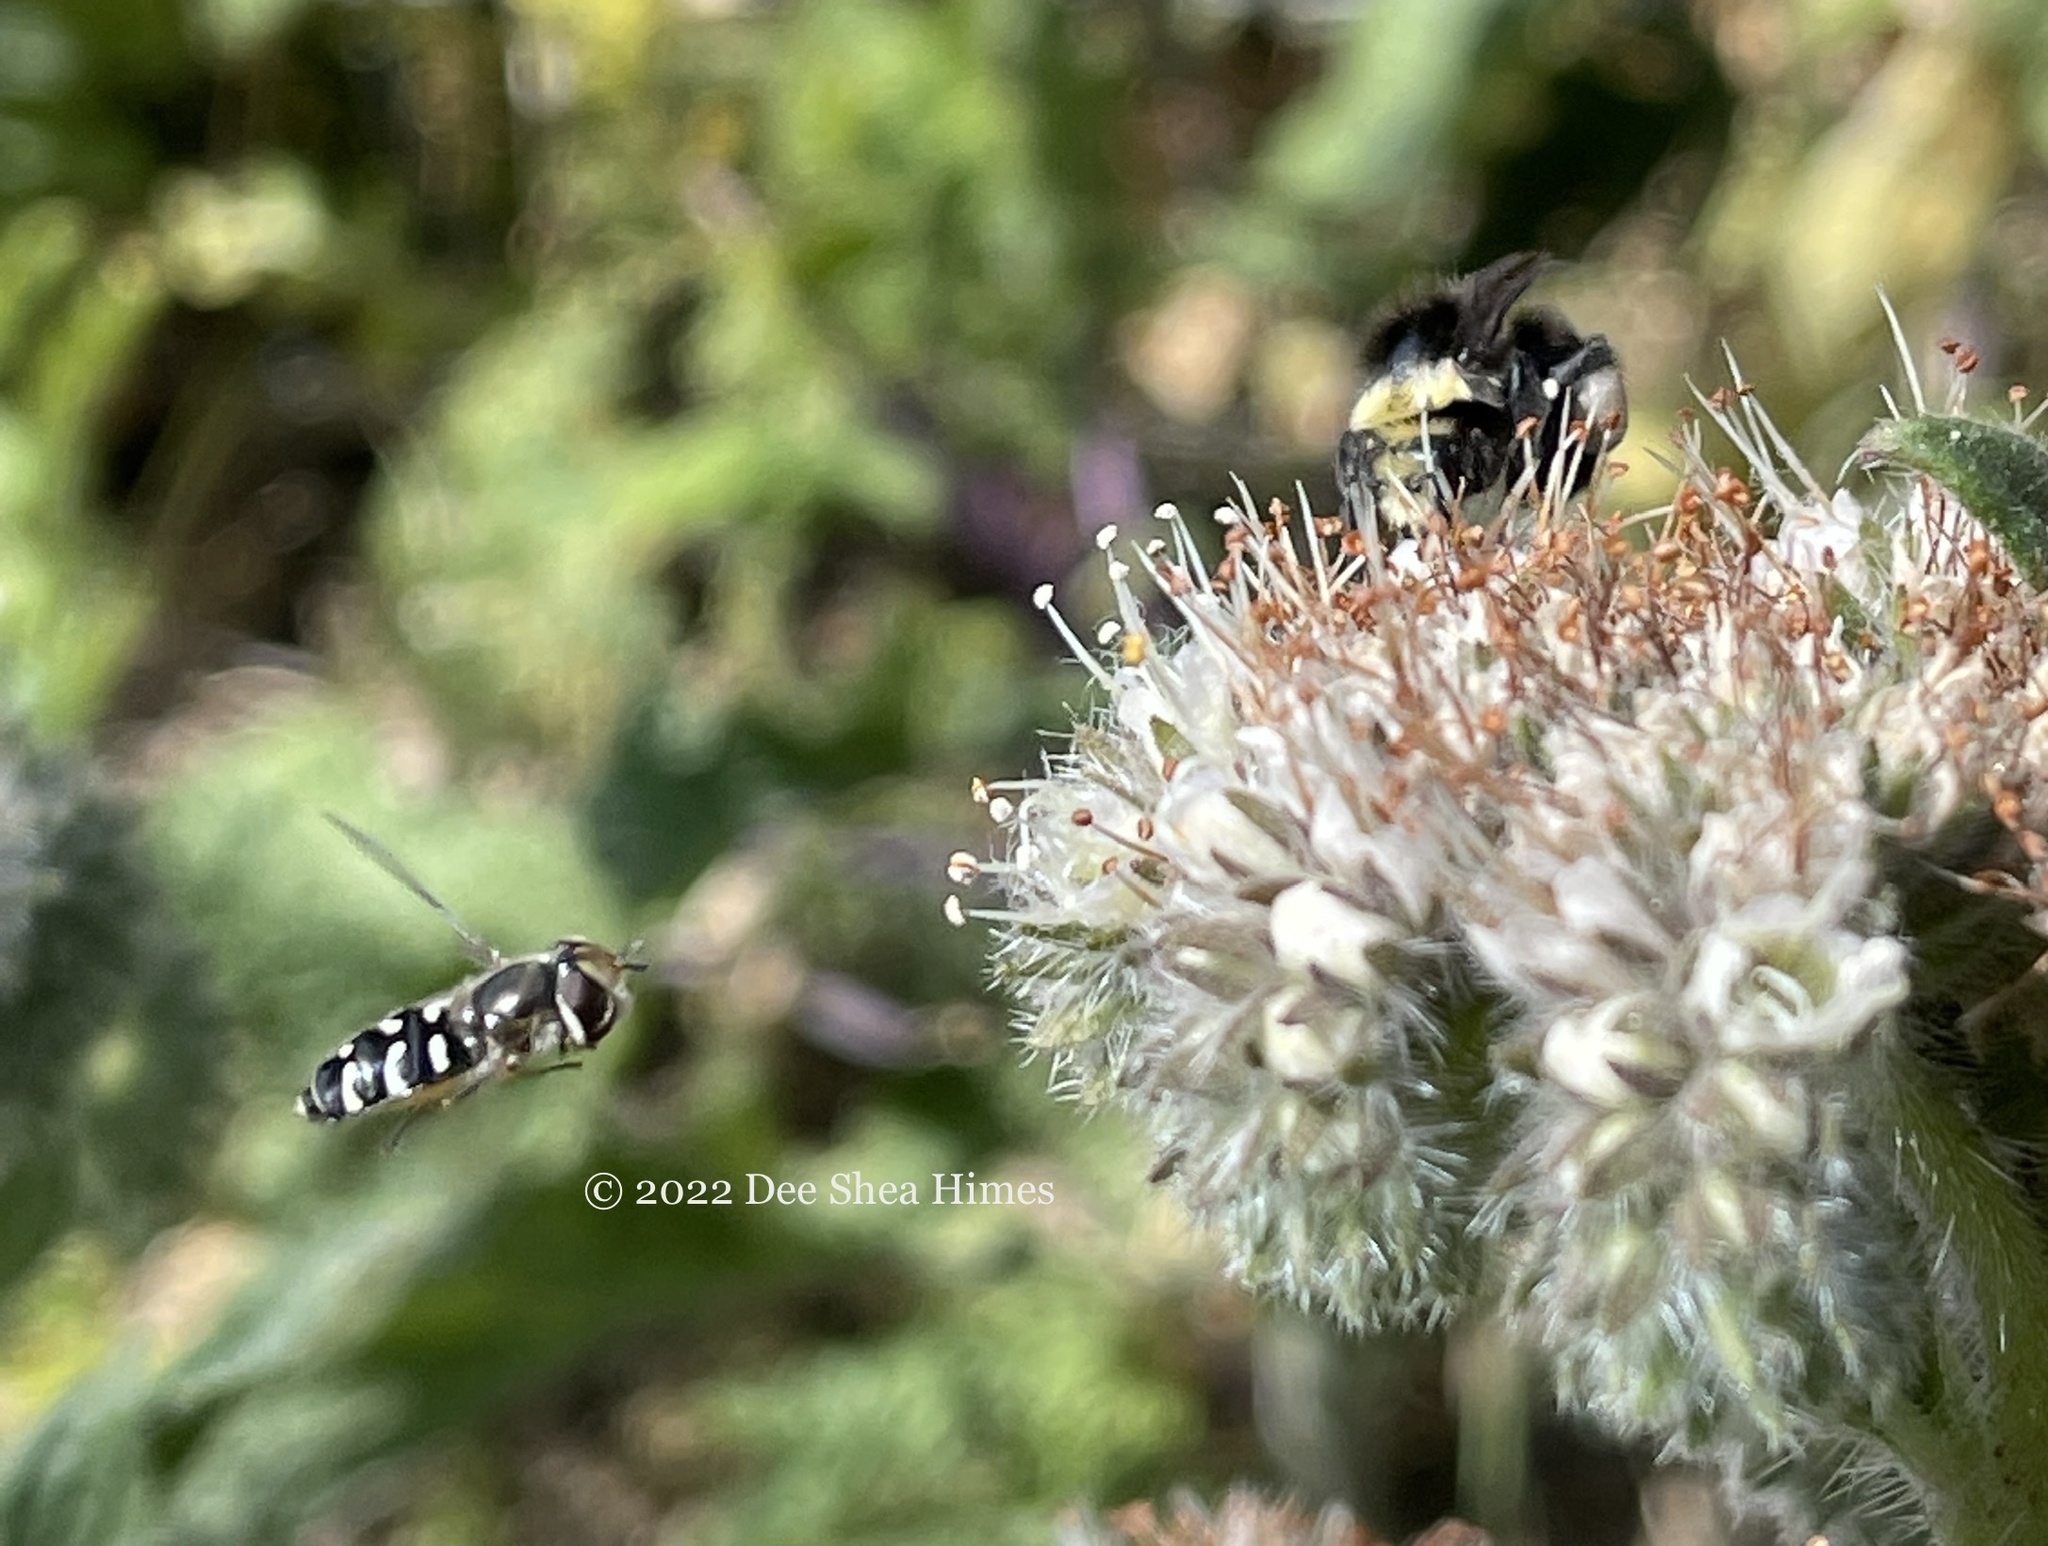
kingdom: Animalia
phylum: Arthropoda
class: Insecta
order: Diptera
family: Syrphidae
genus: Scaeva
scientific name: Scaeva affinis
